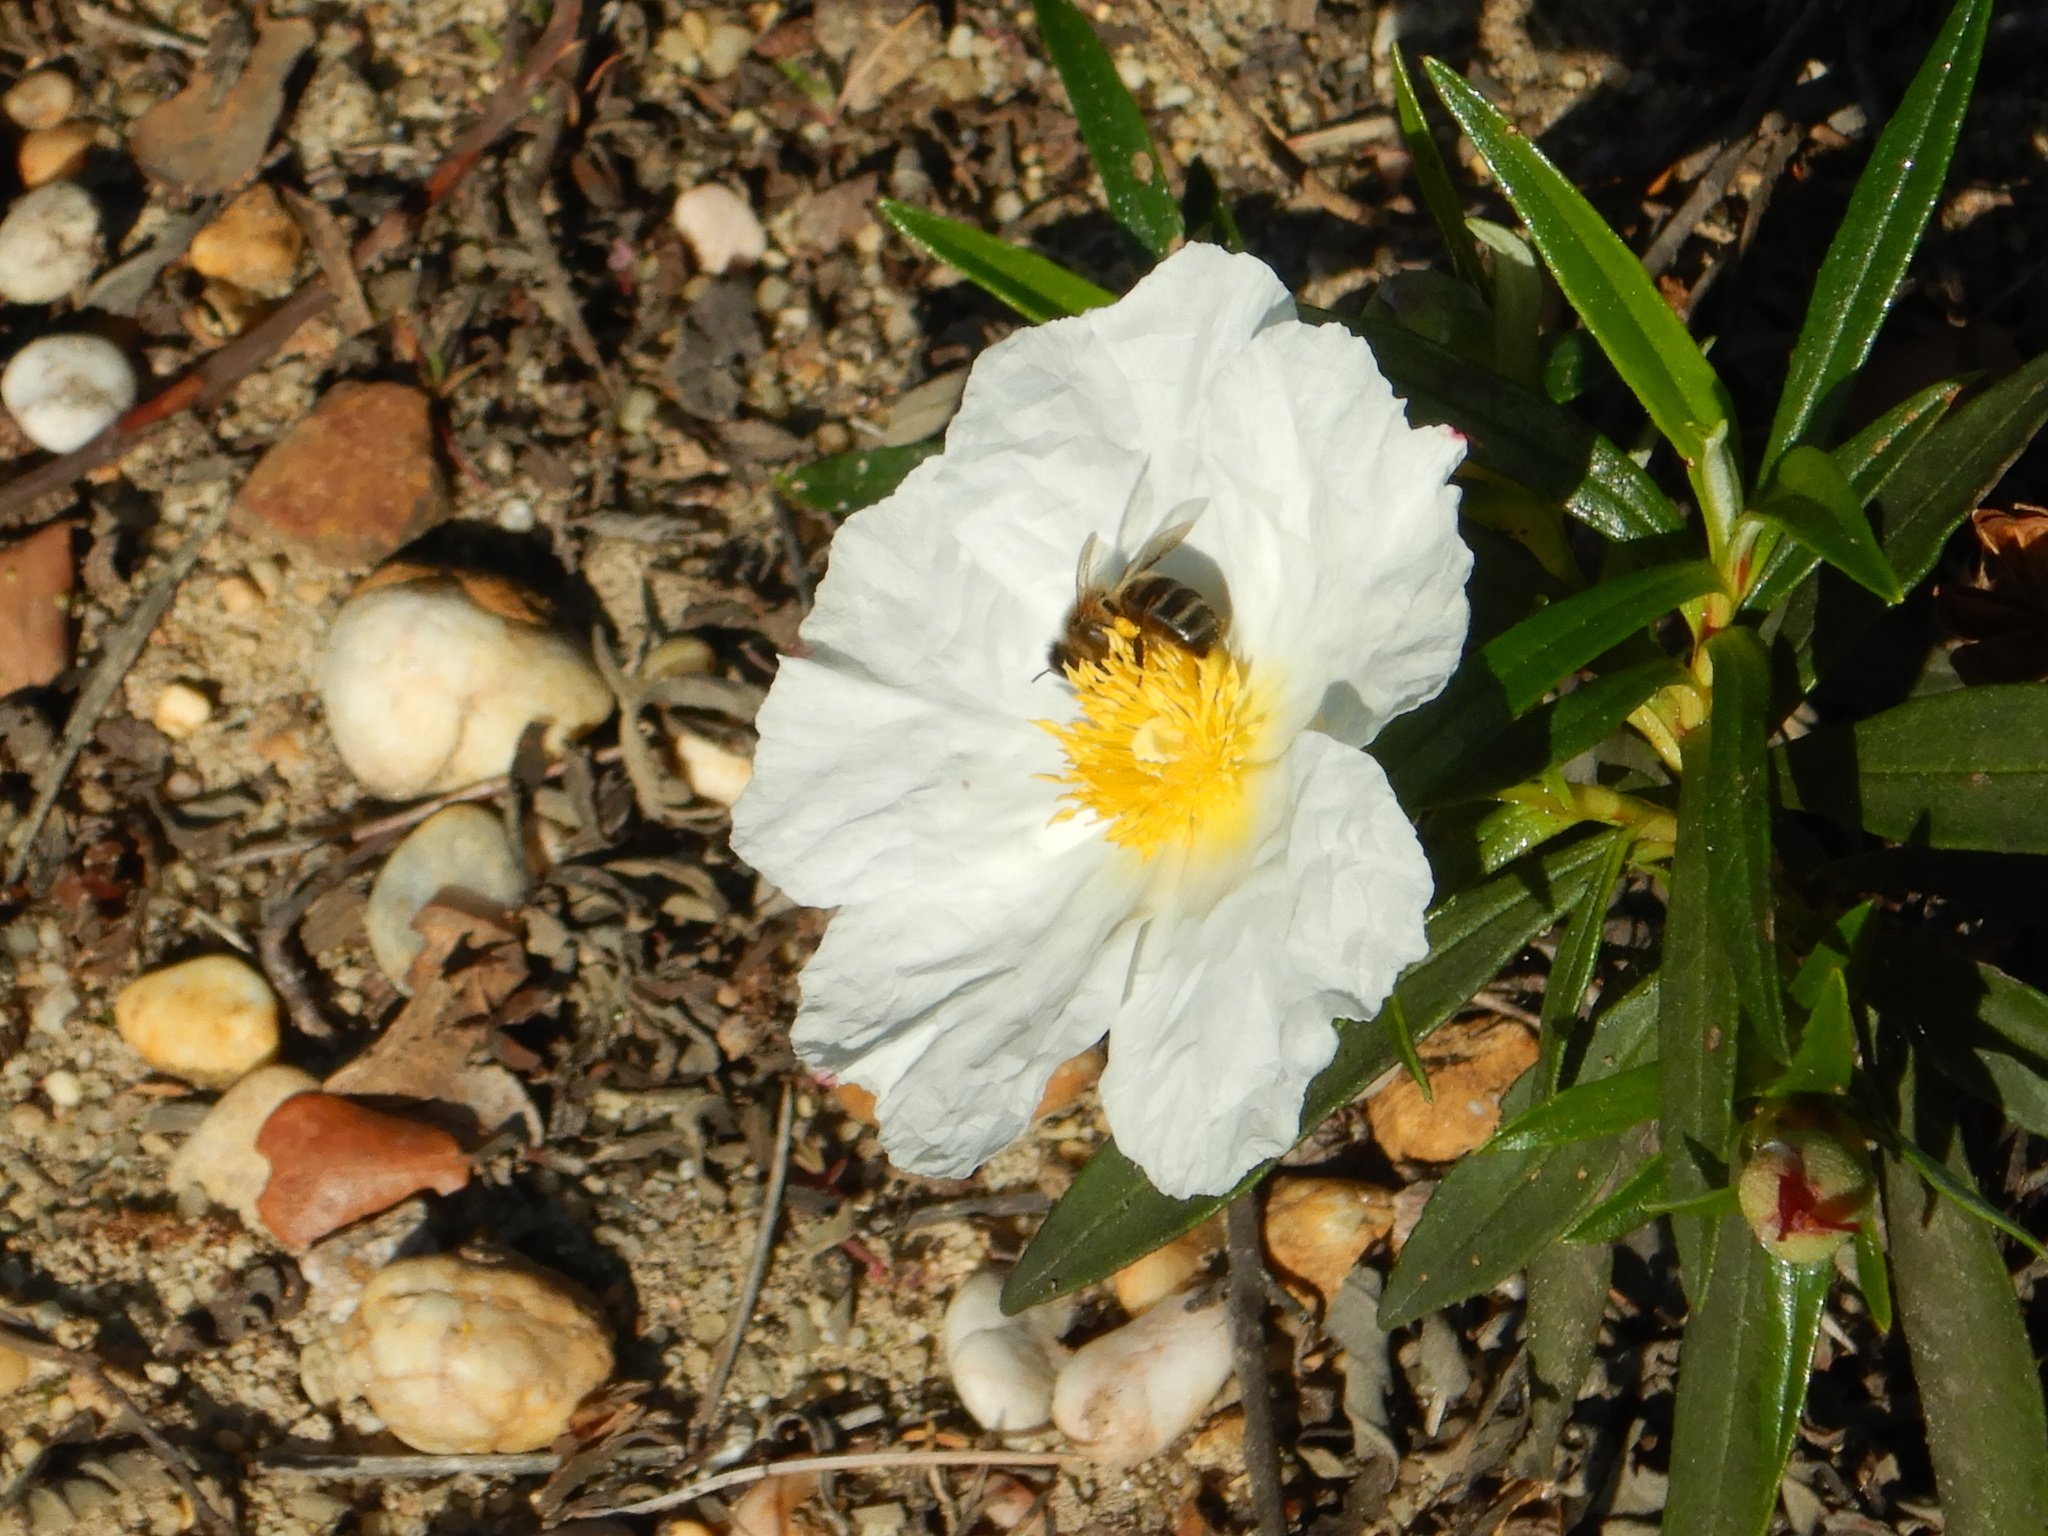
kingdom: Animalia
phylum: Arthropoda
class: Insecta
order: Hymenoptera
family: Apidae
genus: Apis
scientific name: Apis mellifera
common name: Honey bee
